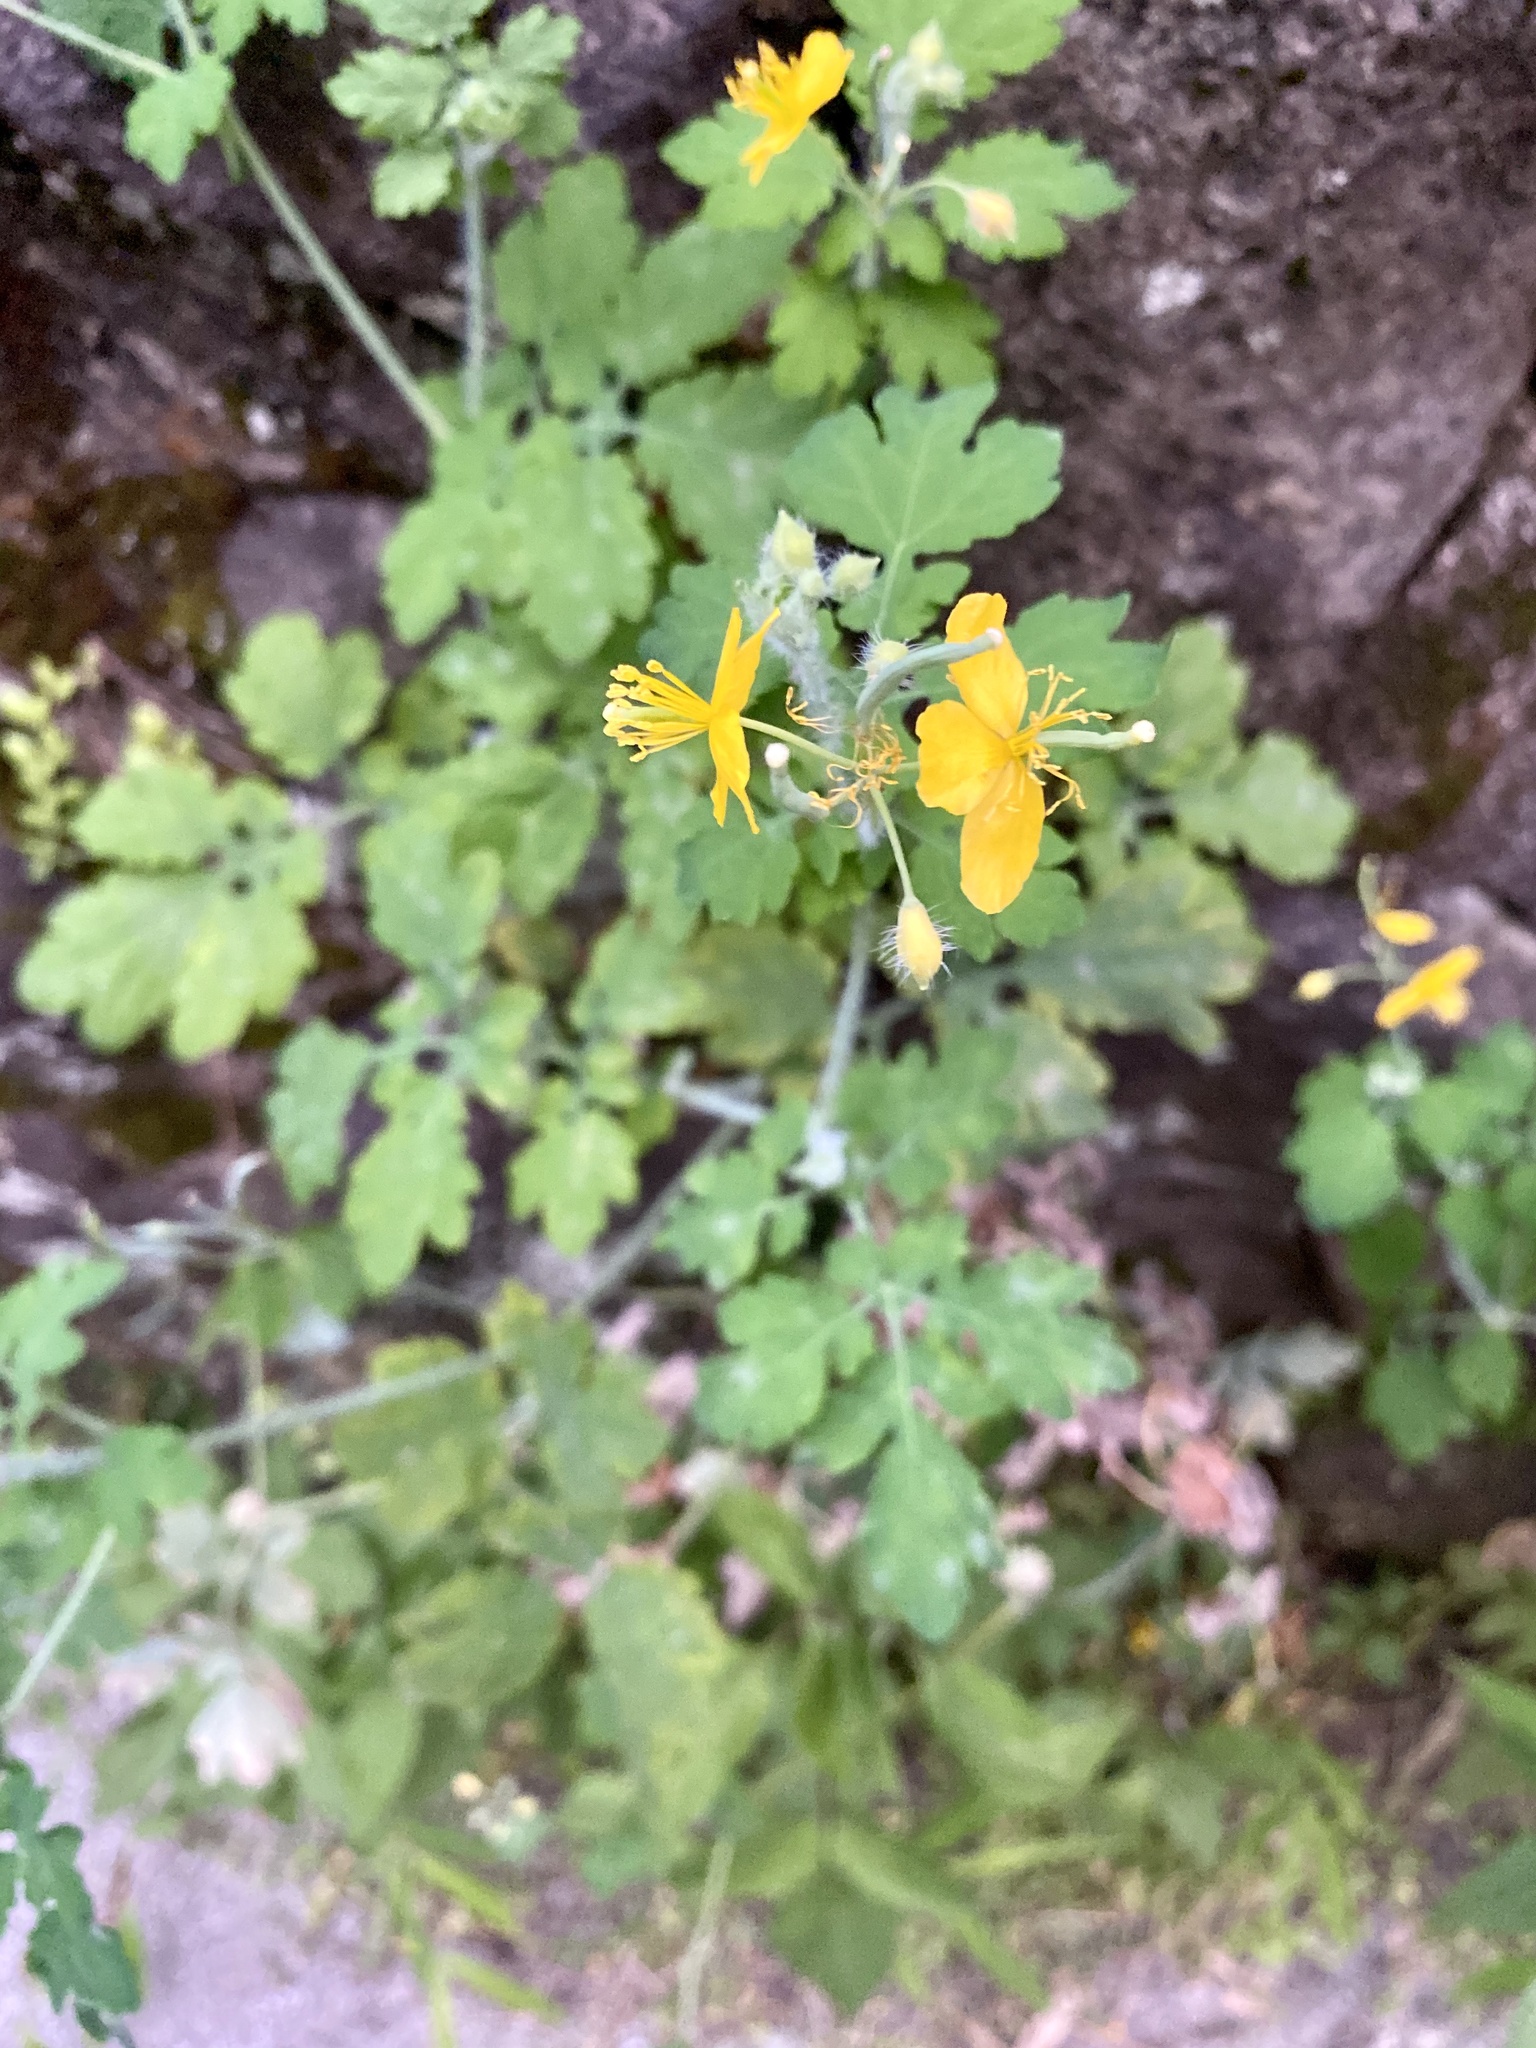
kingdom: Plantae
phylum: Tracheophyta
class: Magnoliopsida
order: Ranunculales
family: Papaveraceae
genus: Chelidonium
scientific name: Chelidonium majus
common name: Greater celandine
